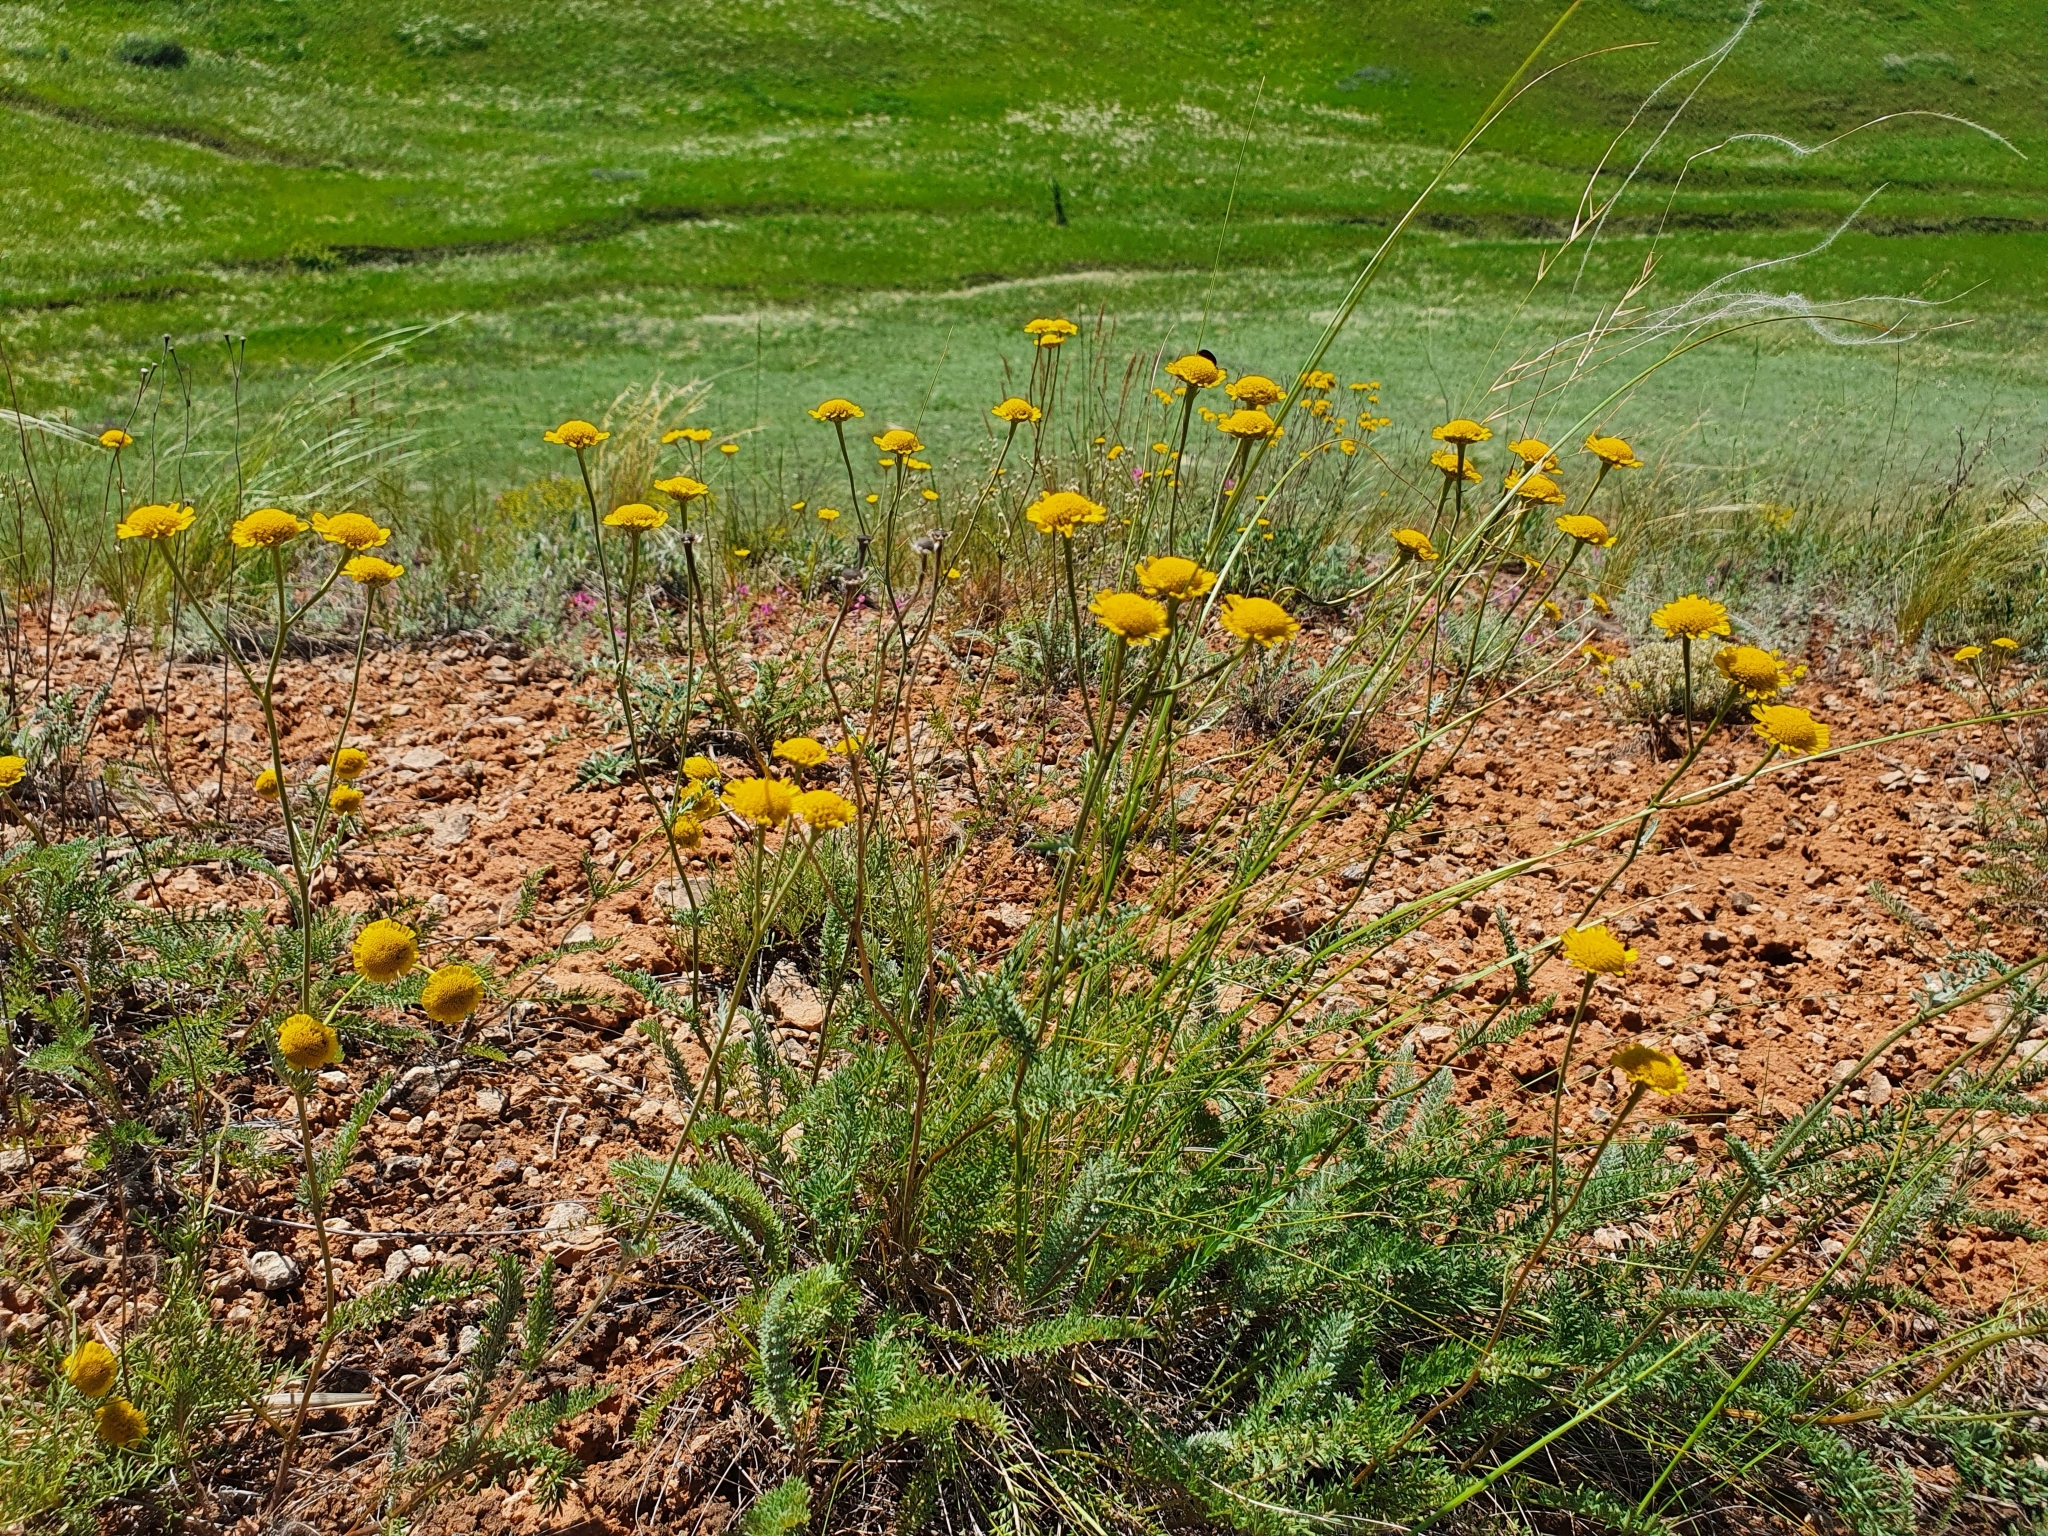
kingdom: Plantae
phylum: Tracheophyta
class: Magnoliopsida
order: Asterales
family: Asteraceae
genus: Tanacetum
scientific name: Tanacetum kittaryanum
